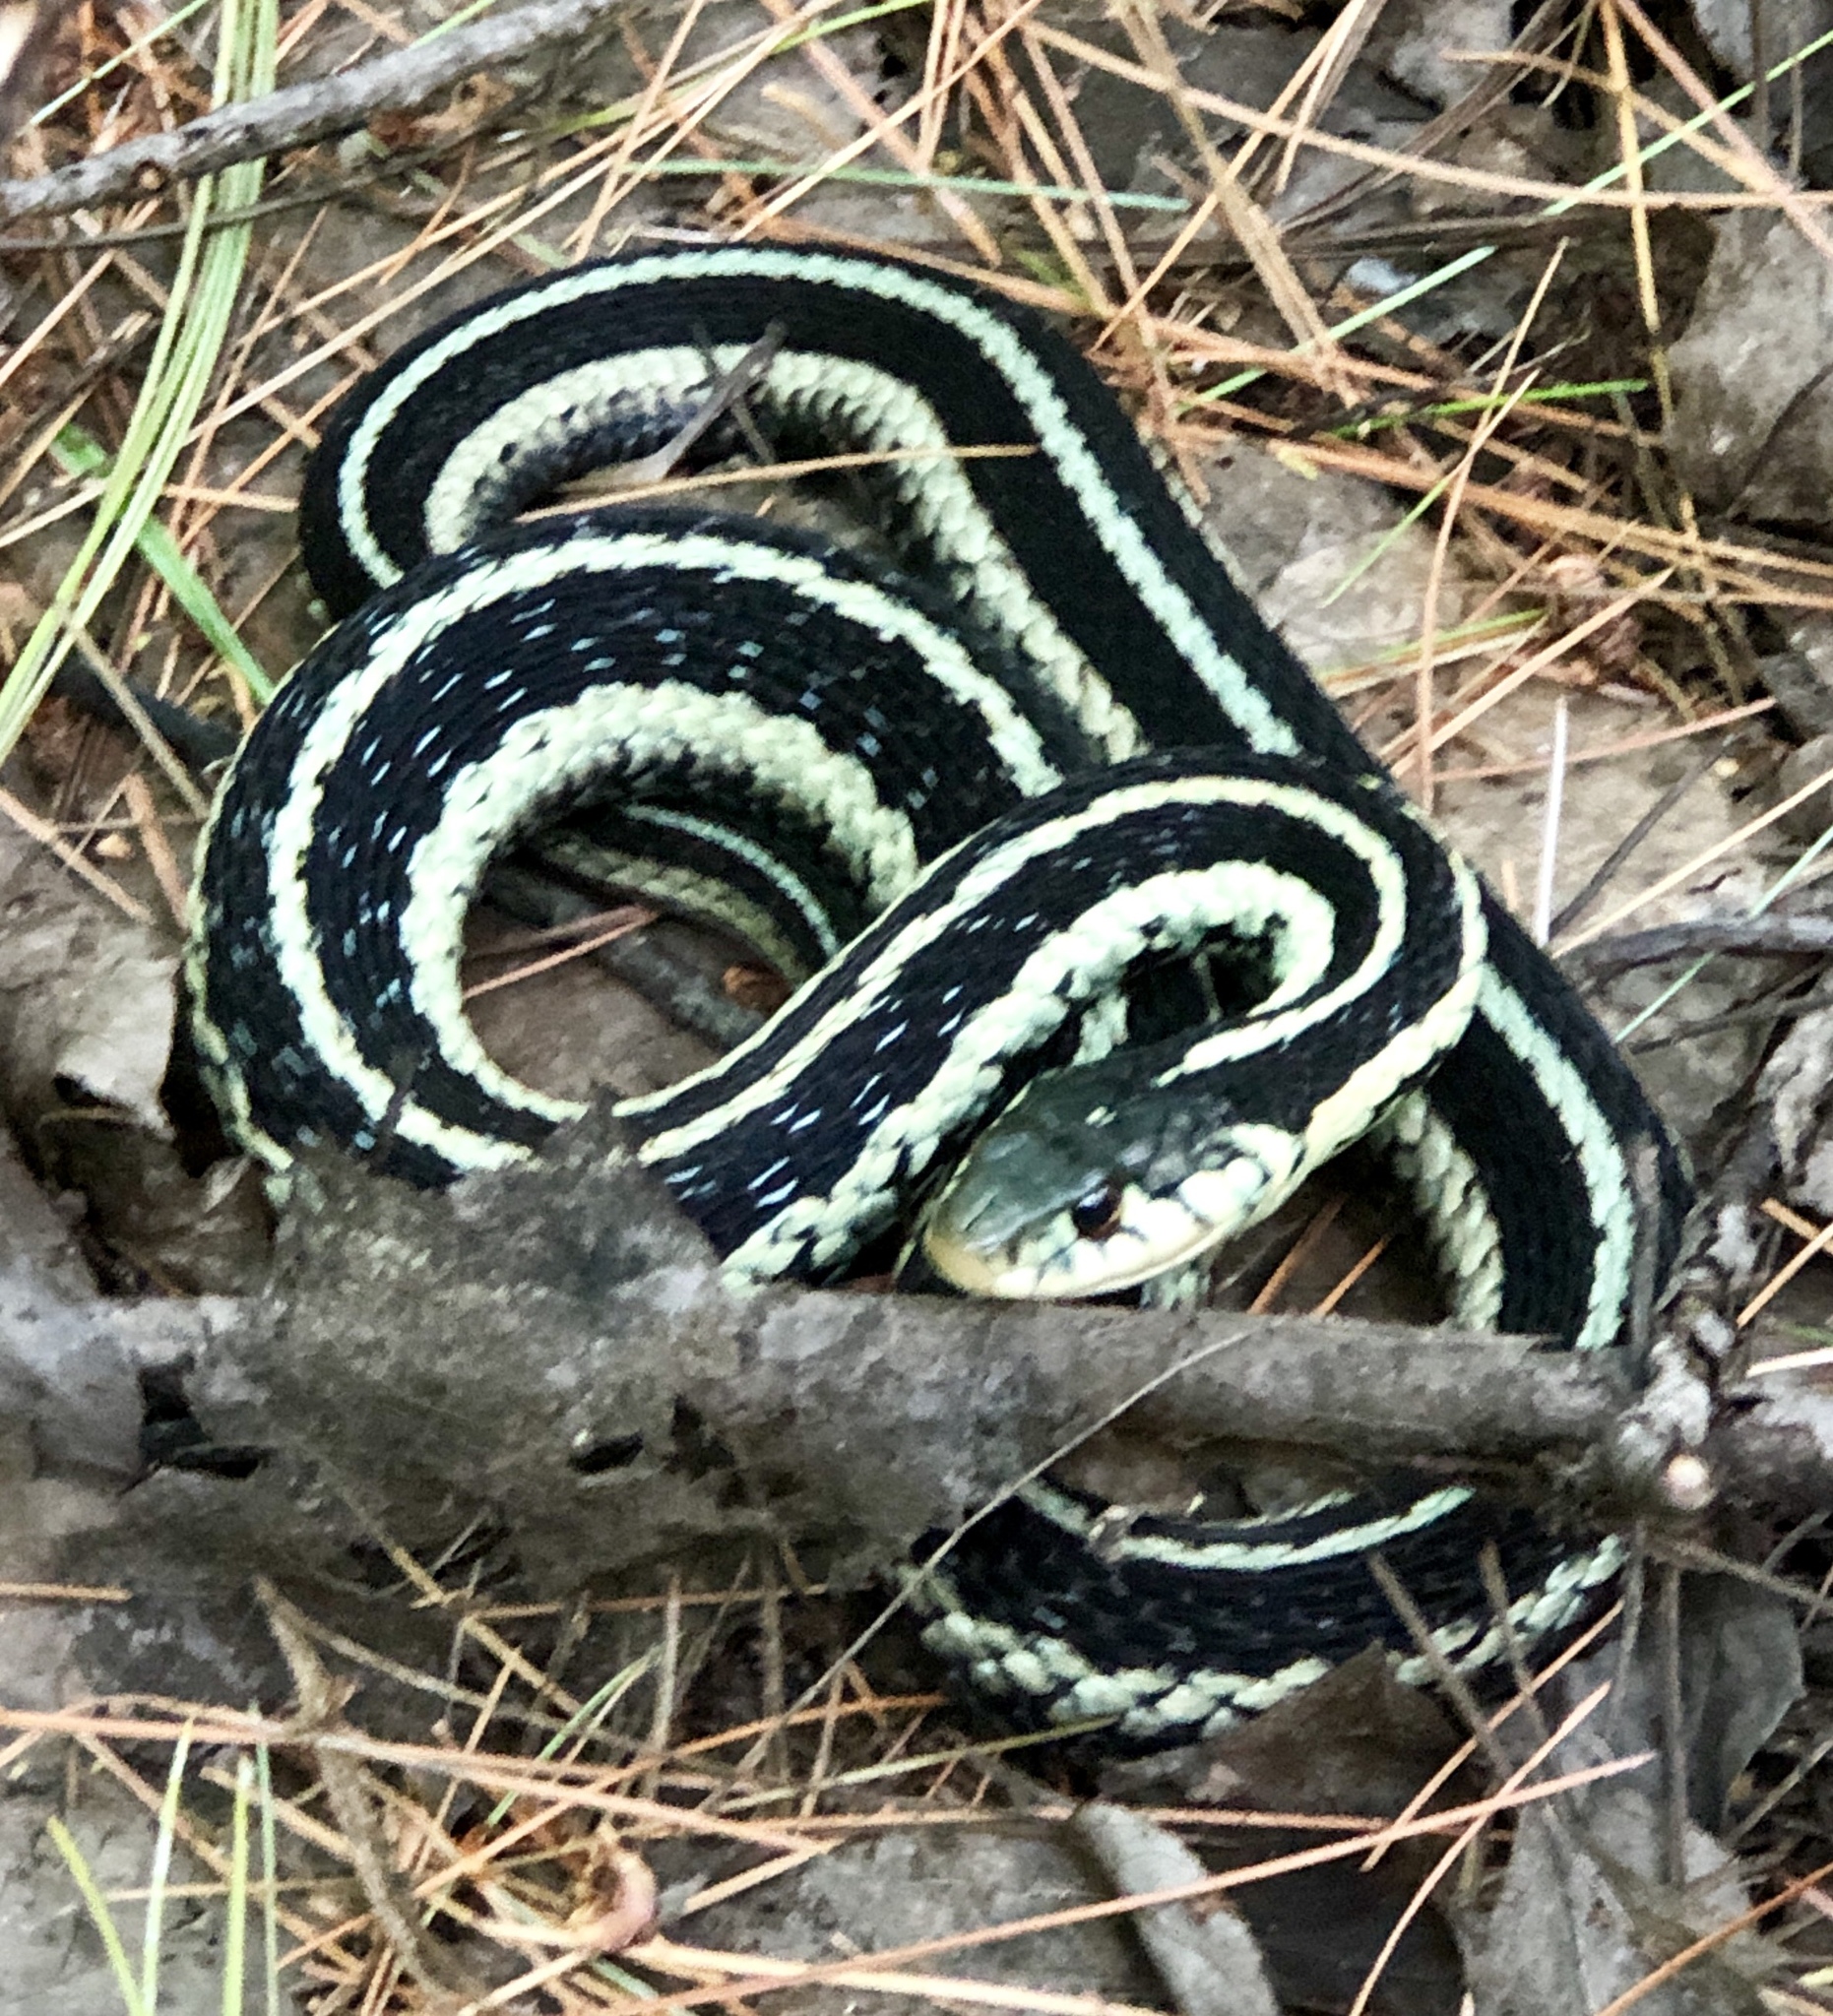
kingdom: Animalia
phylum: Chordata
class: Squamata
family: Colubridae
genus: Thamnophis
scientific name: Thamnophis sirtalis
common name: Common garter snake
